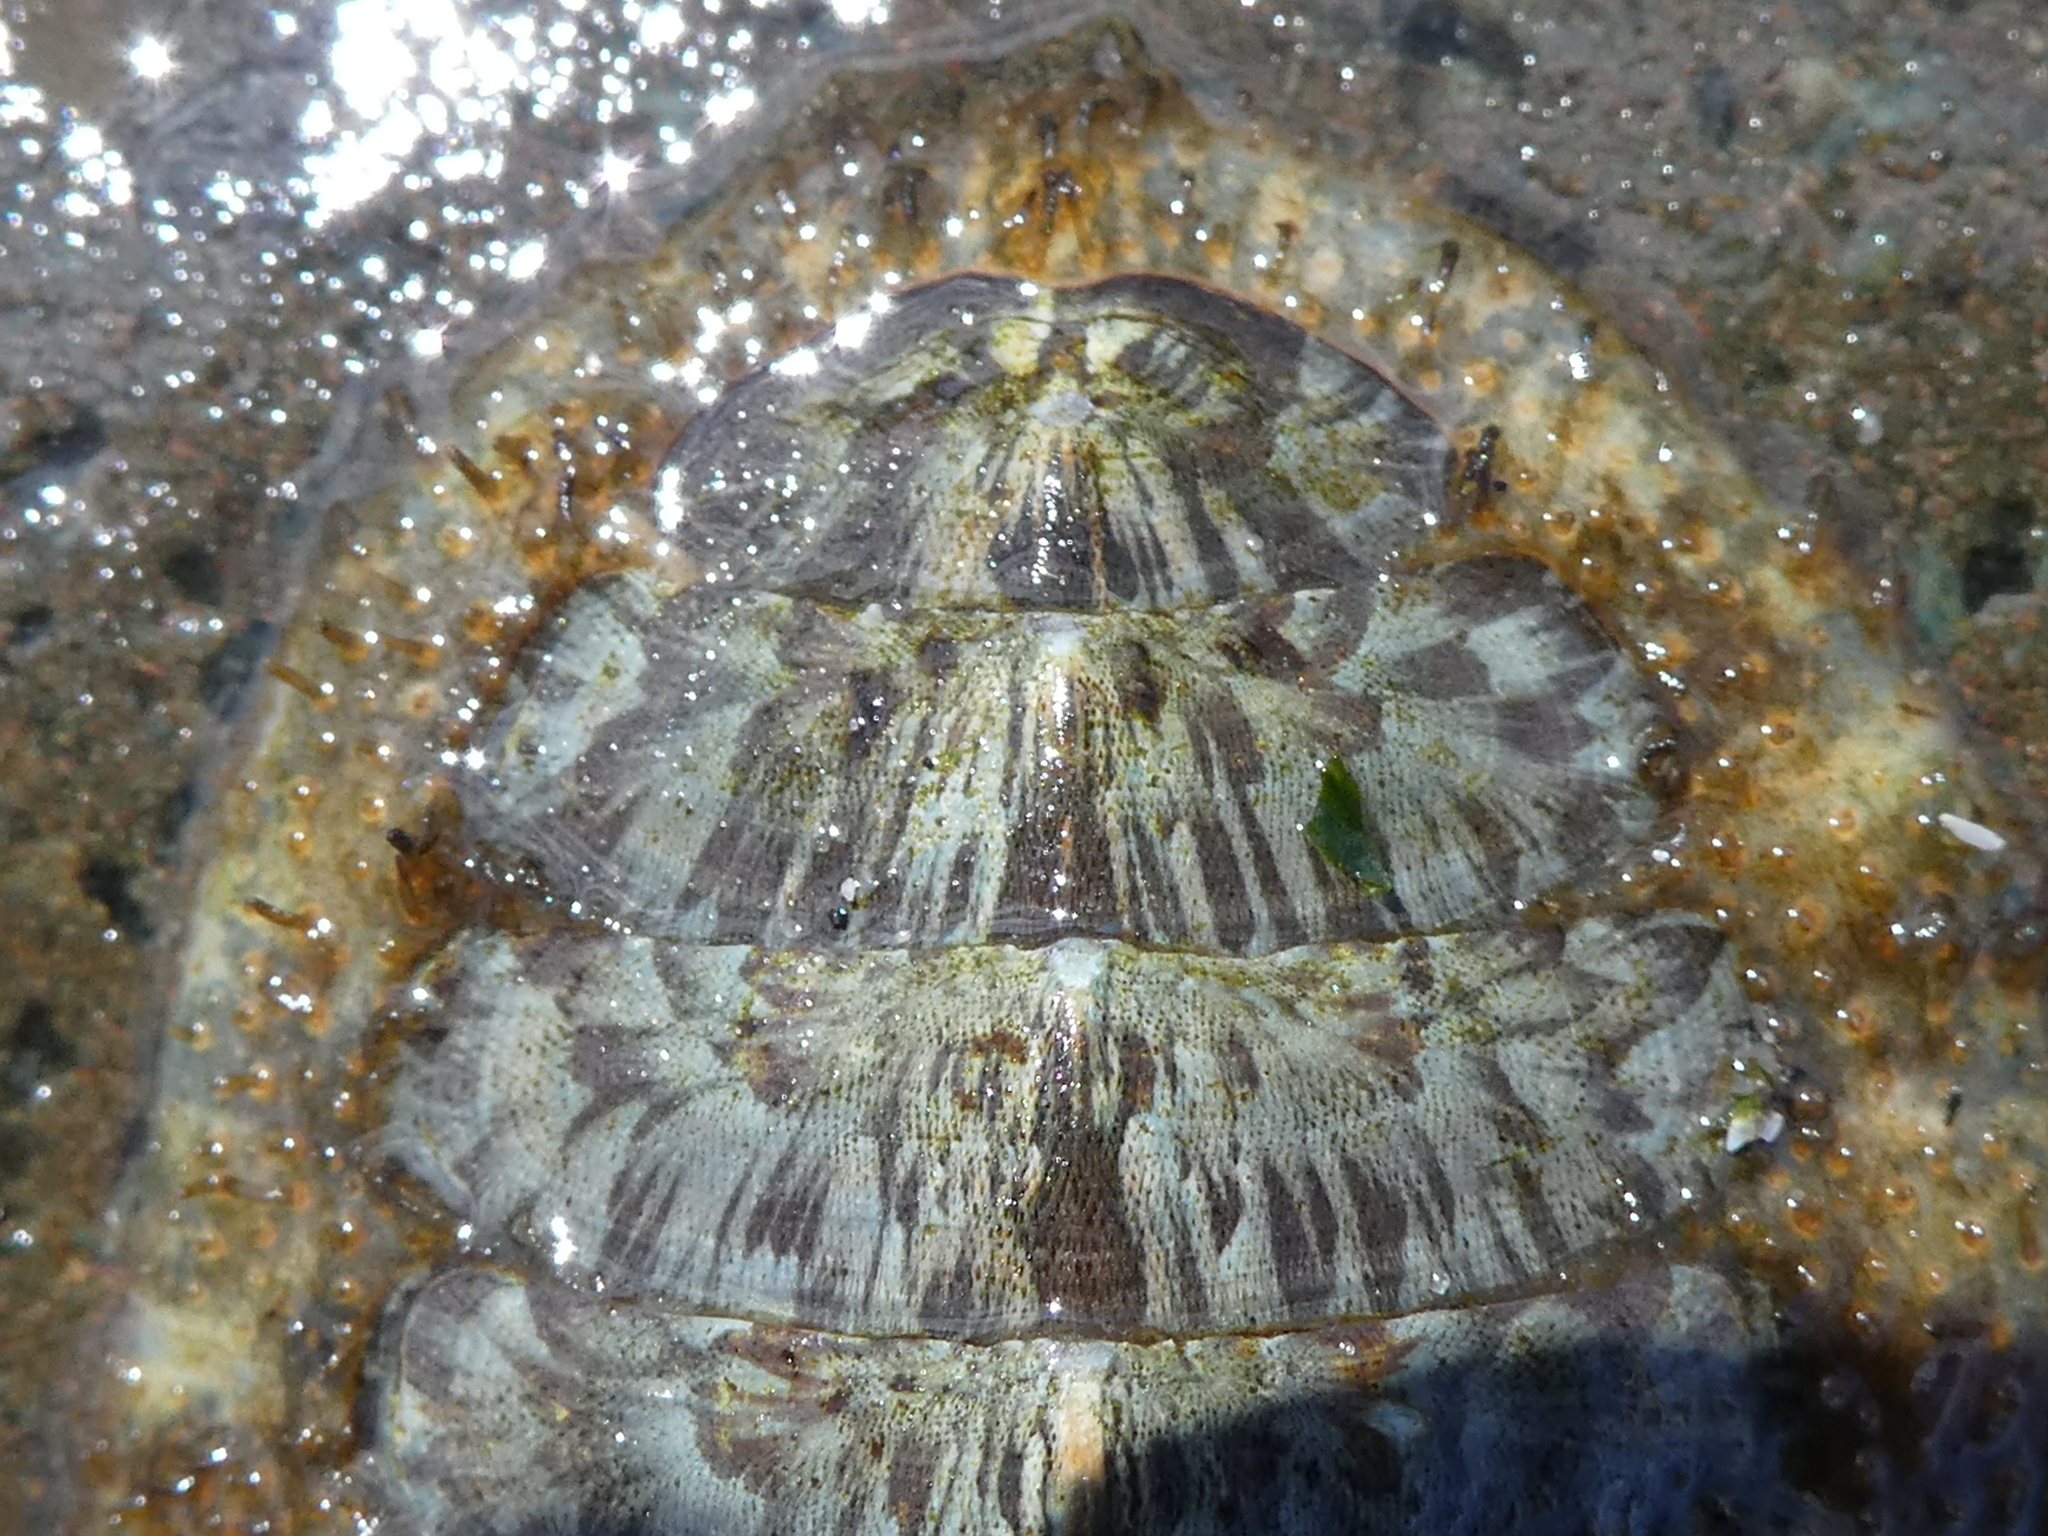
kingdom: Animalia
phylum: Mollusca
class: Polyplacophora
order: Chitonida
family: Mopaliidae
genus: Mopalia
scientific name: Mopalia lignosa
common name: Woody chiton
